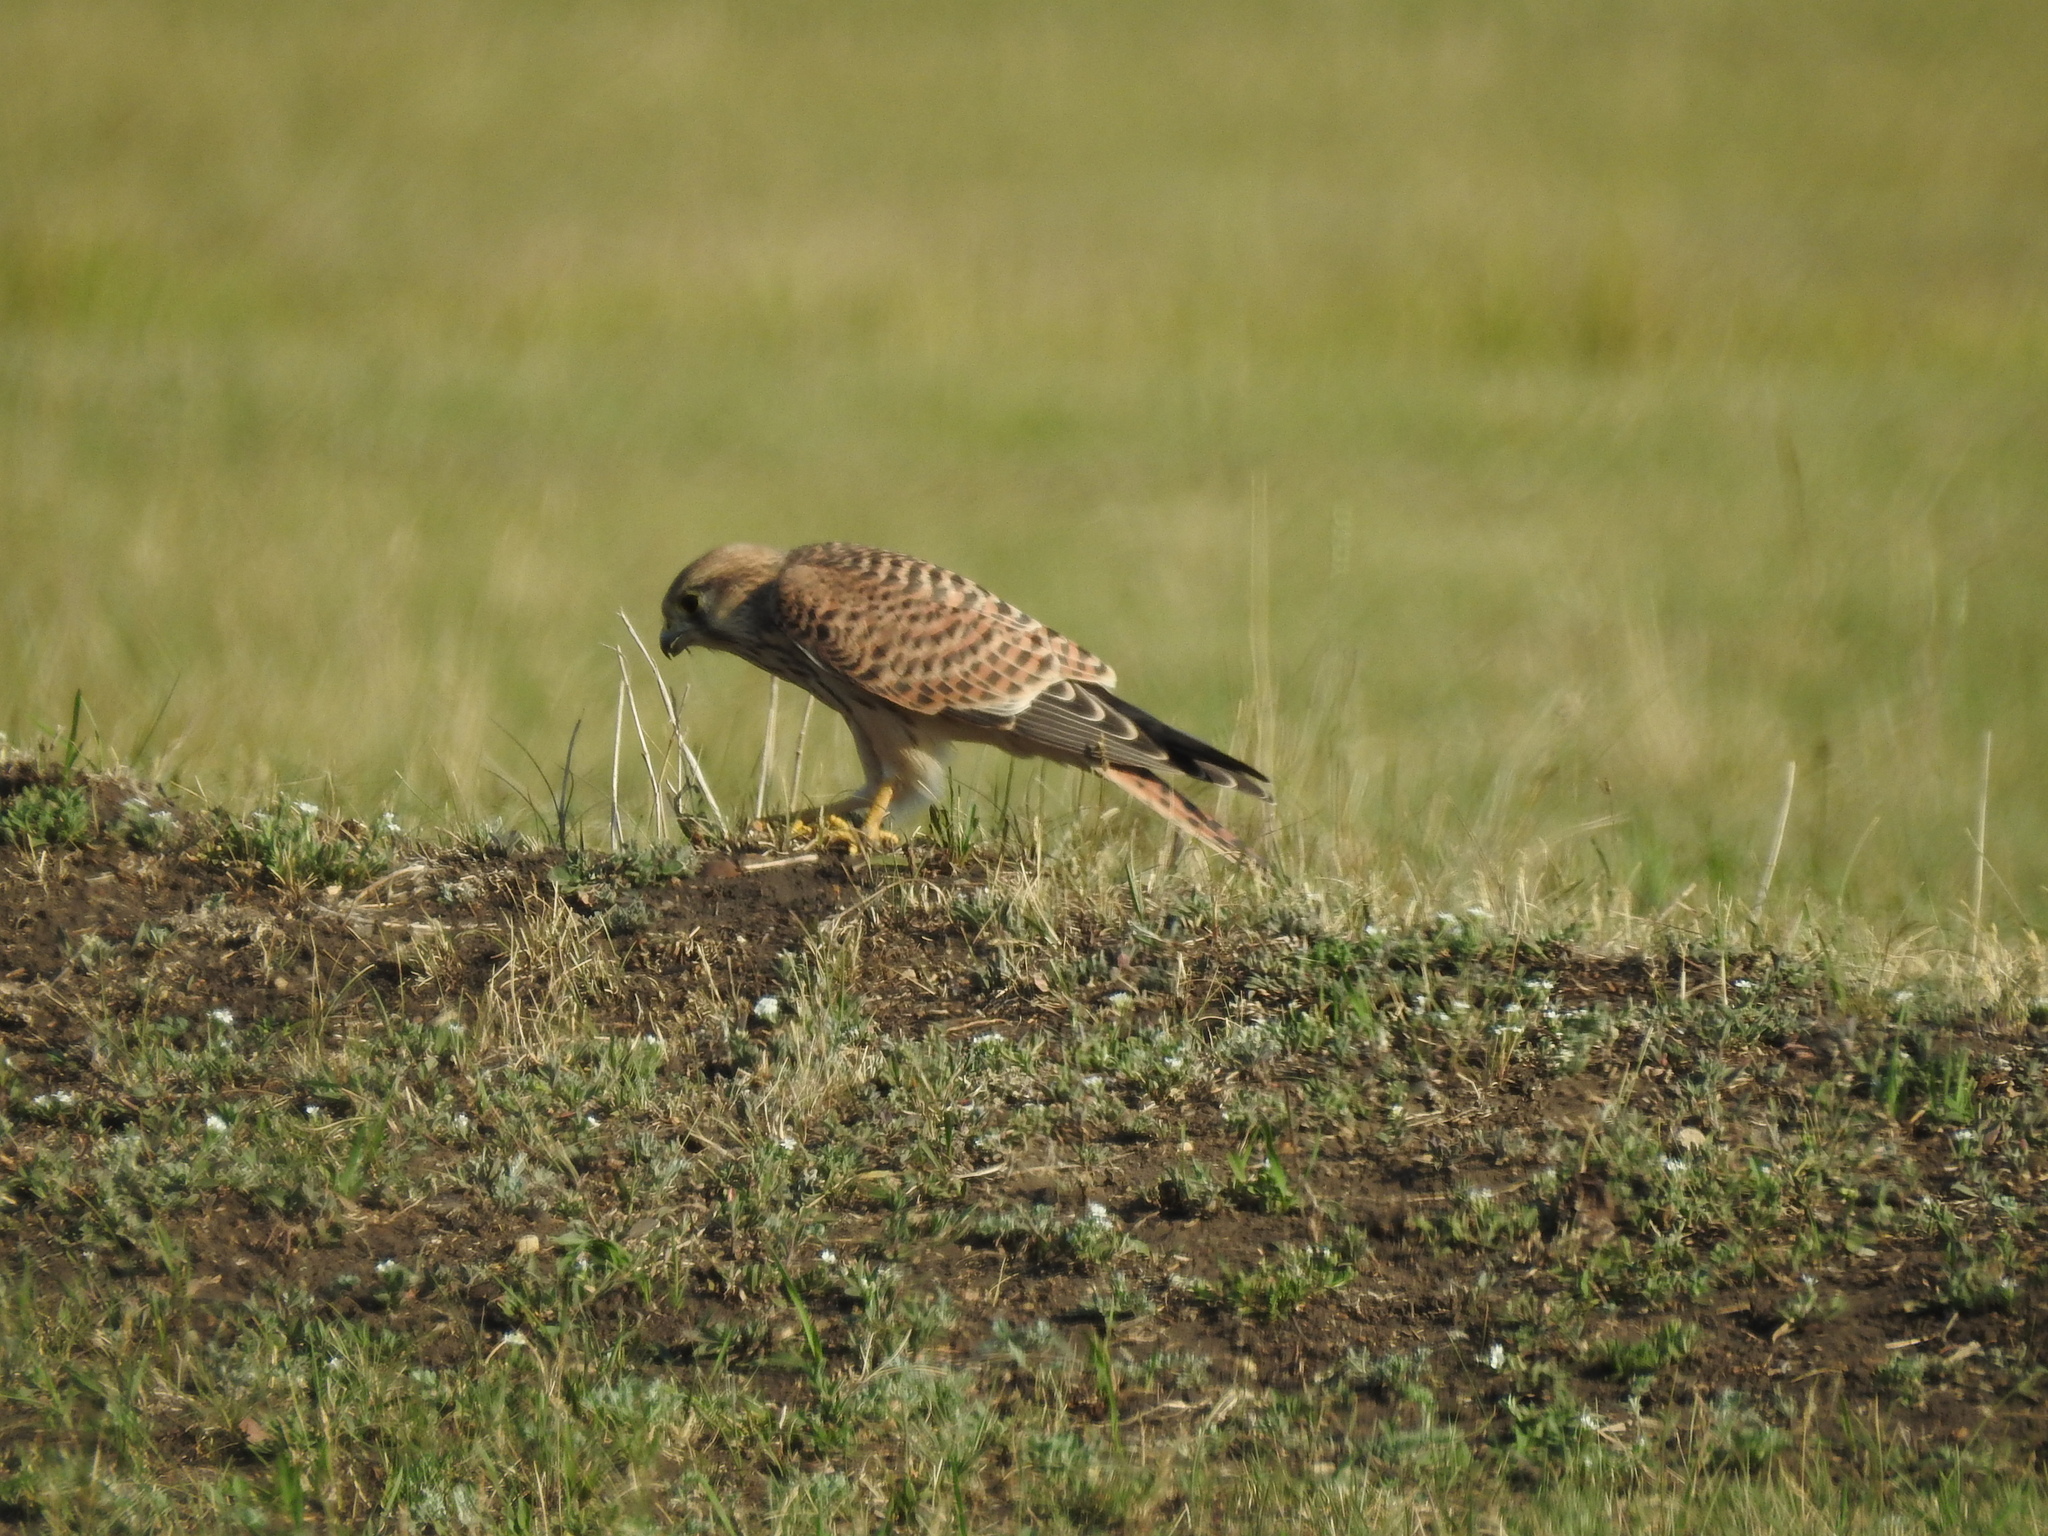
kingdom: Animalia
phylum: Chordata
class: Aves
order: Falconiformes
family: Falconidae
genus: Falco
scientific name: Falco tinnunculus
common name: Common kestrel
